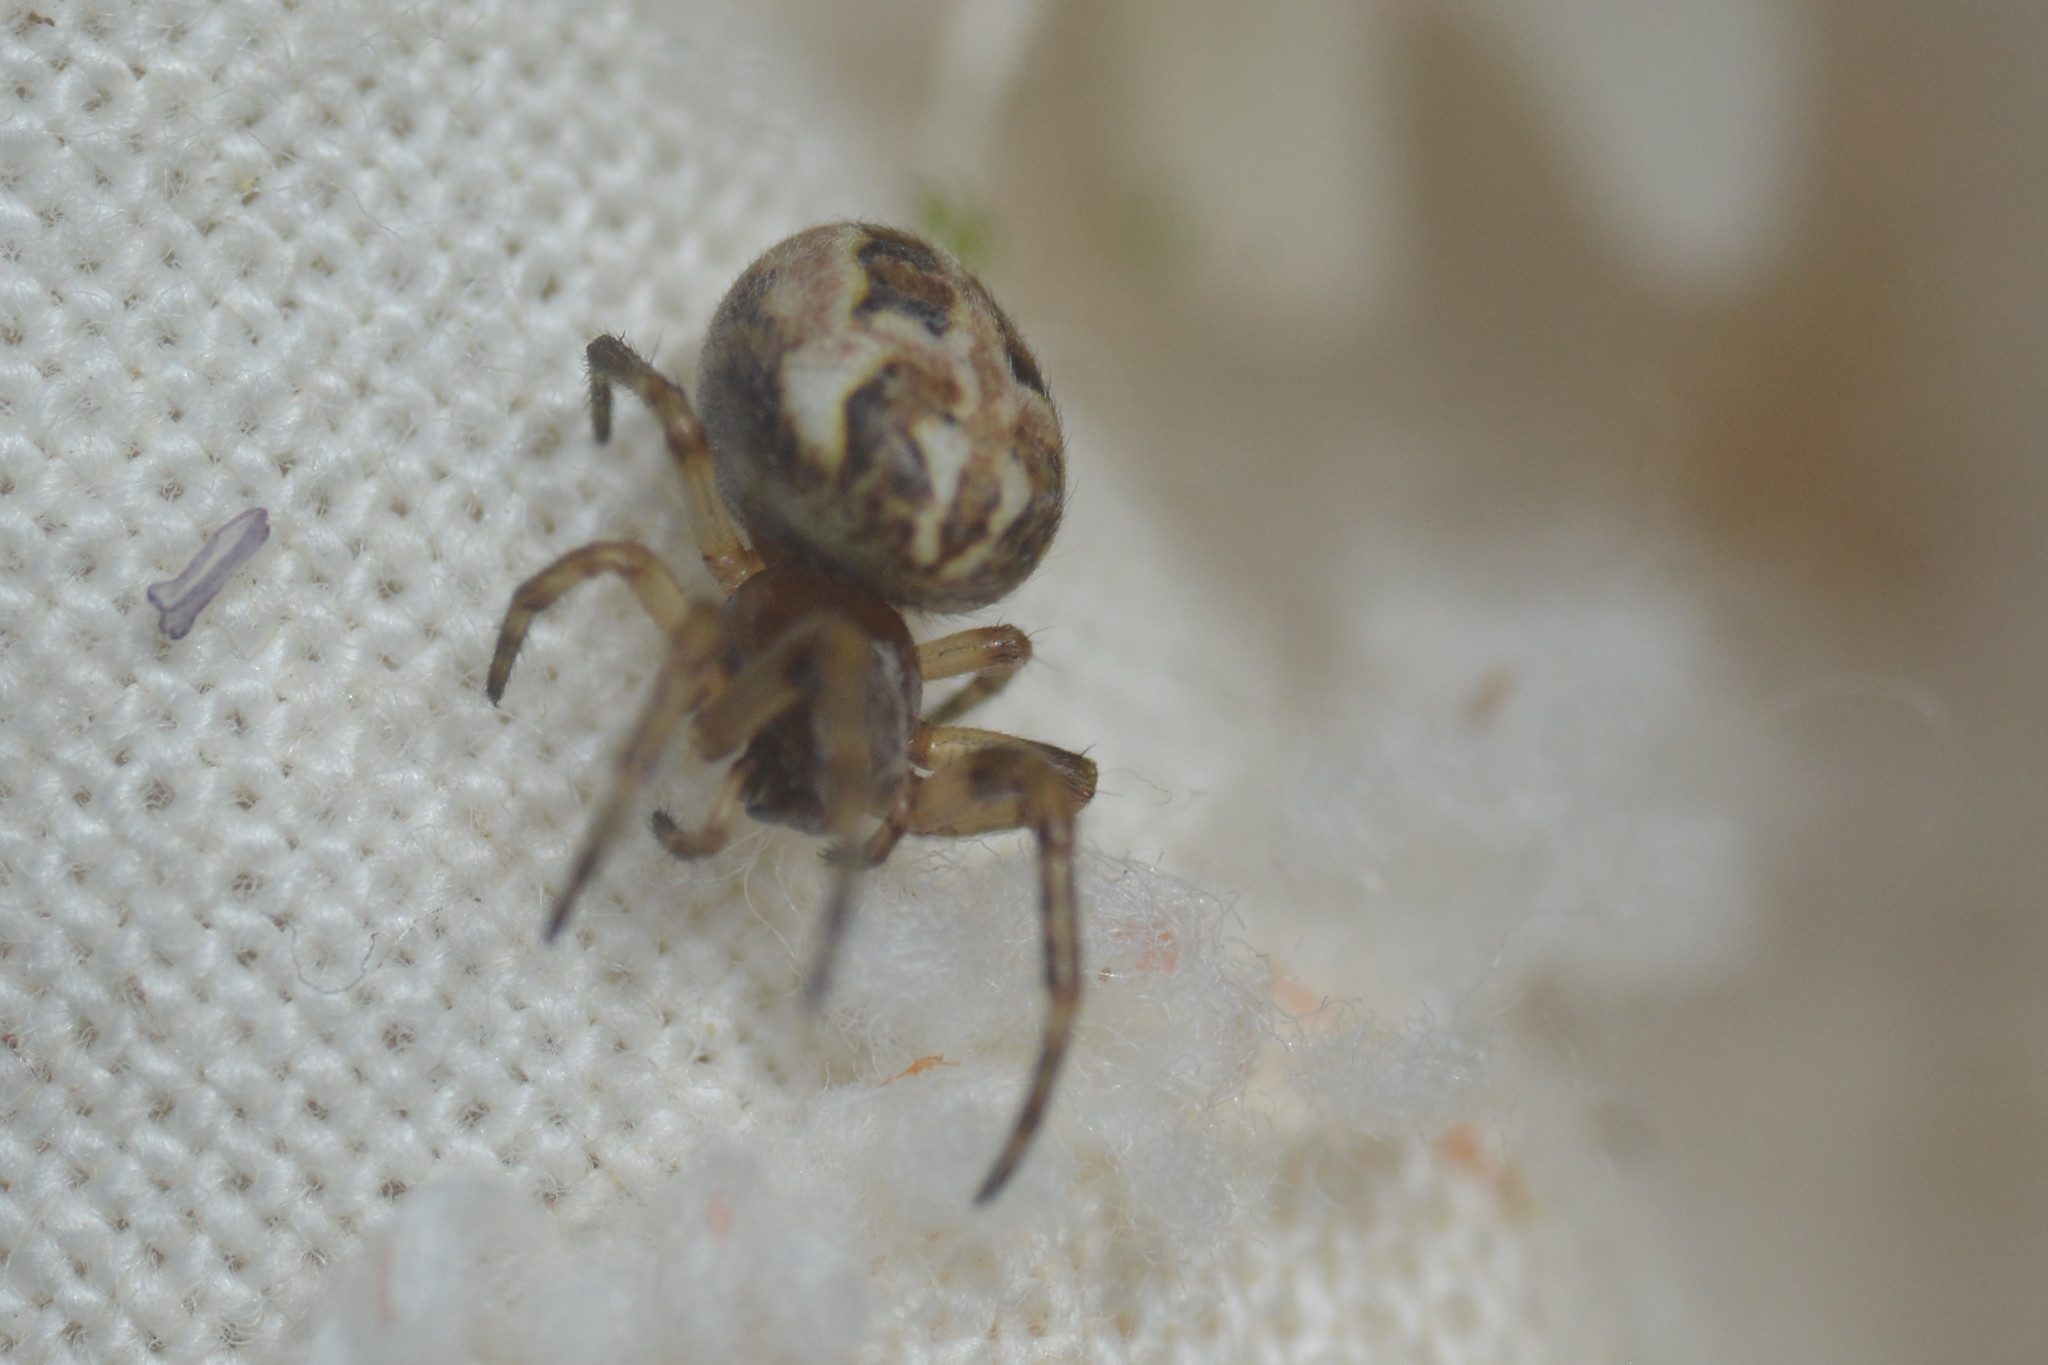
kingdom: Animalia
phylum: Arthropoda
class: Arachnida
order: Araneae
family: Araneidae
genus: Larinioides
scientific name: Larinioides cornutus
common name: Furrow orbweaver
